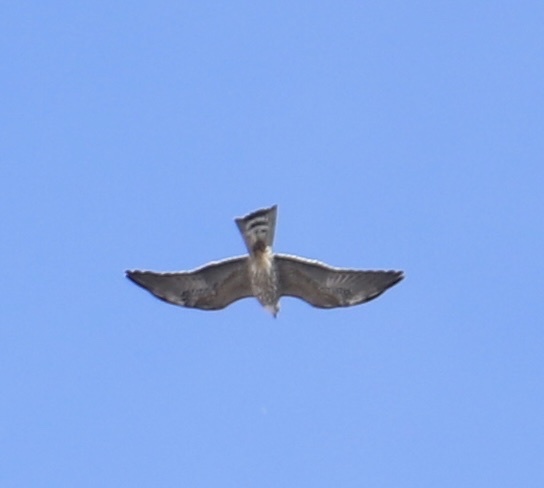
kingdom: Animalia
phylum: Chordata
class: Aves
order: Accipitriformes
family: Accipitridae
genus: Ictinia
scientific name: Ictinia mississippiensis
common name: Mississippi kite
